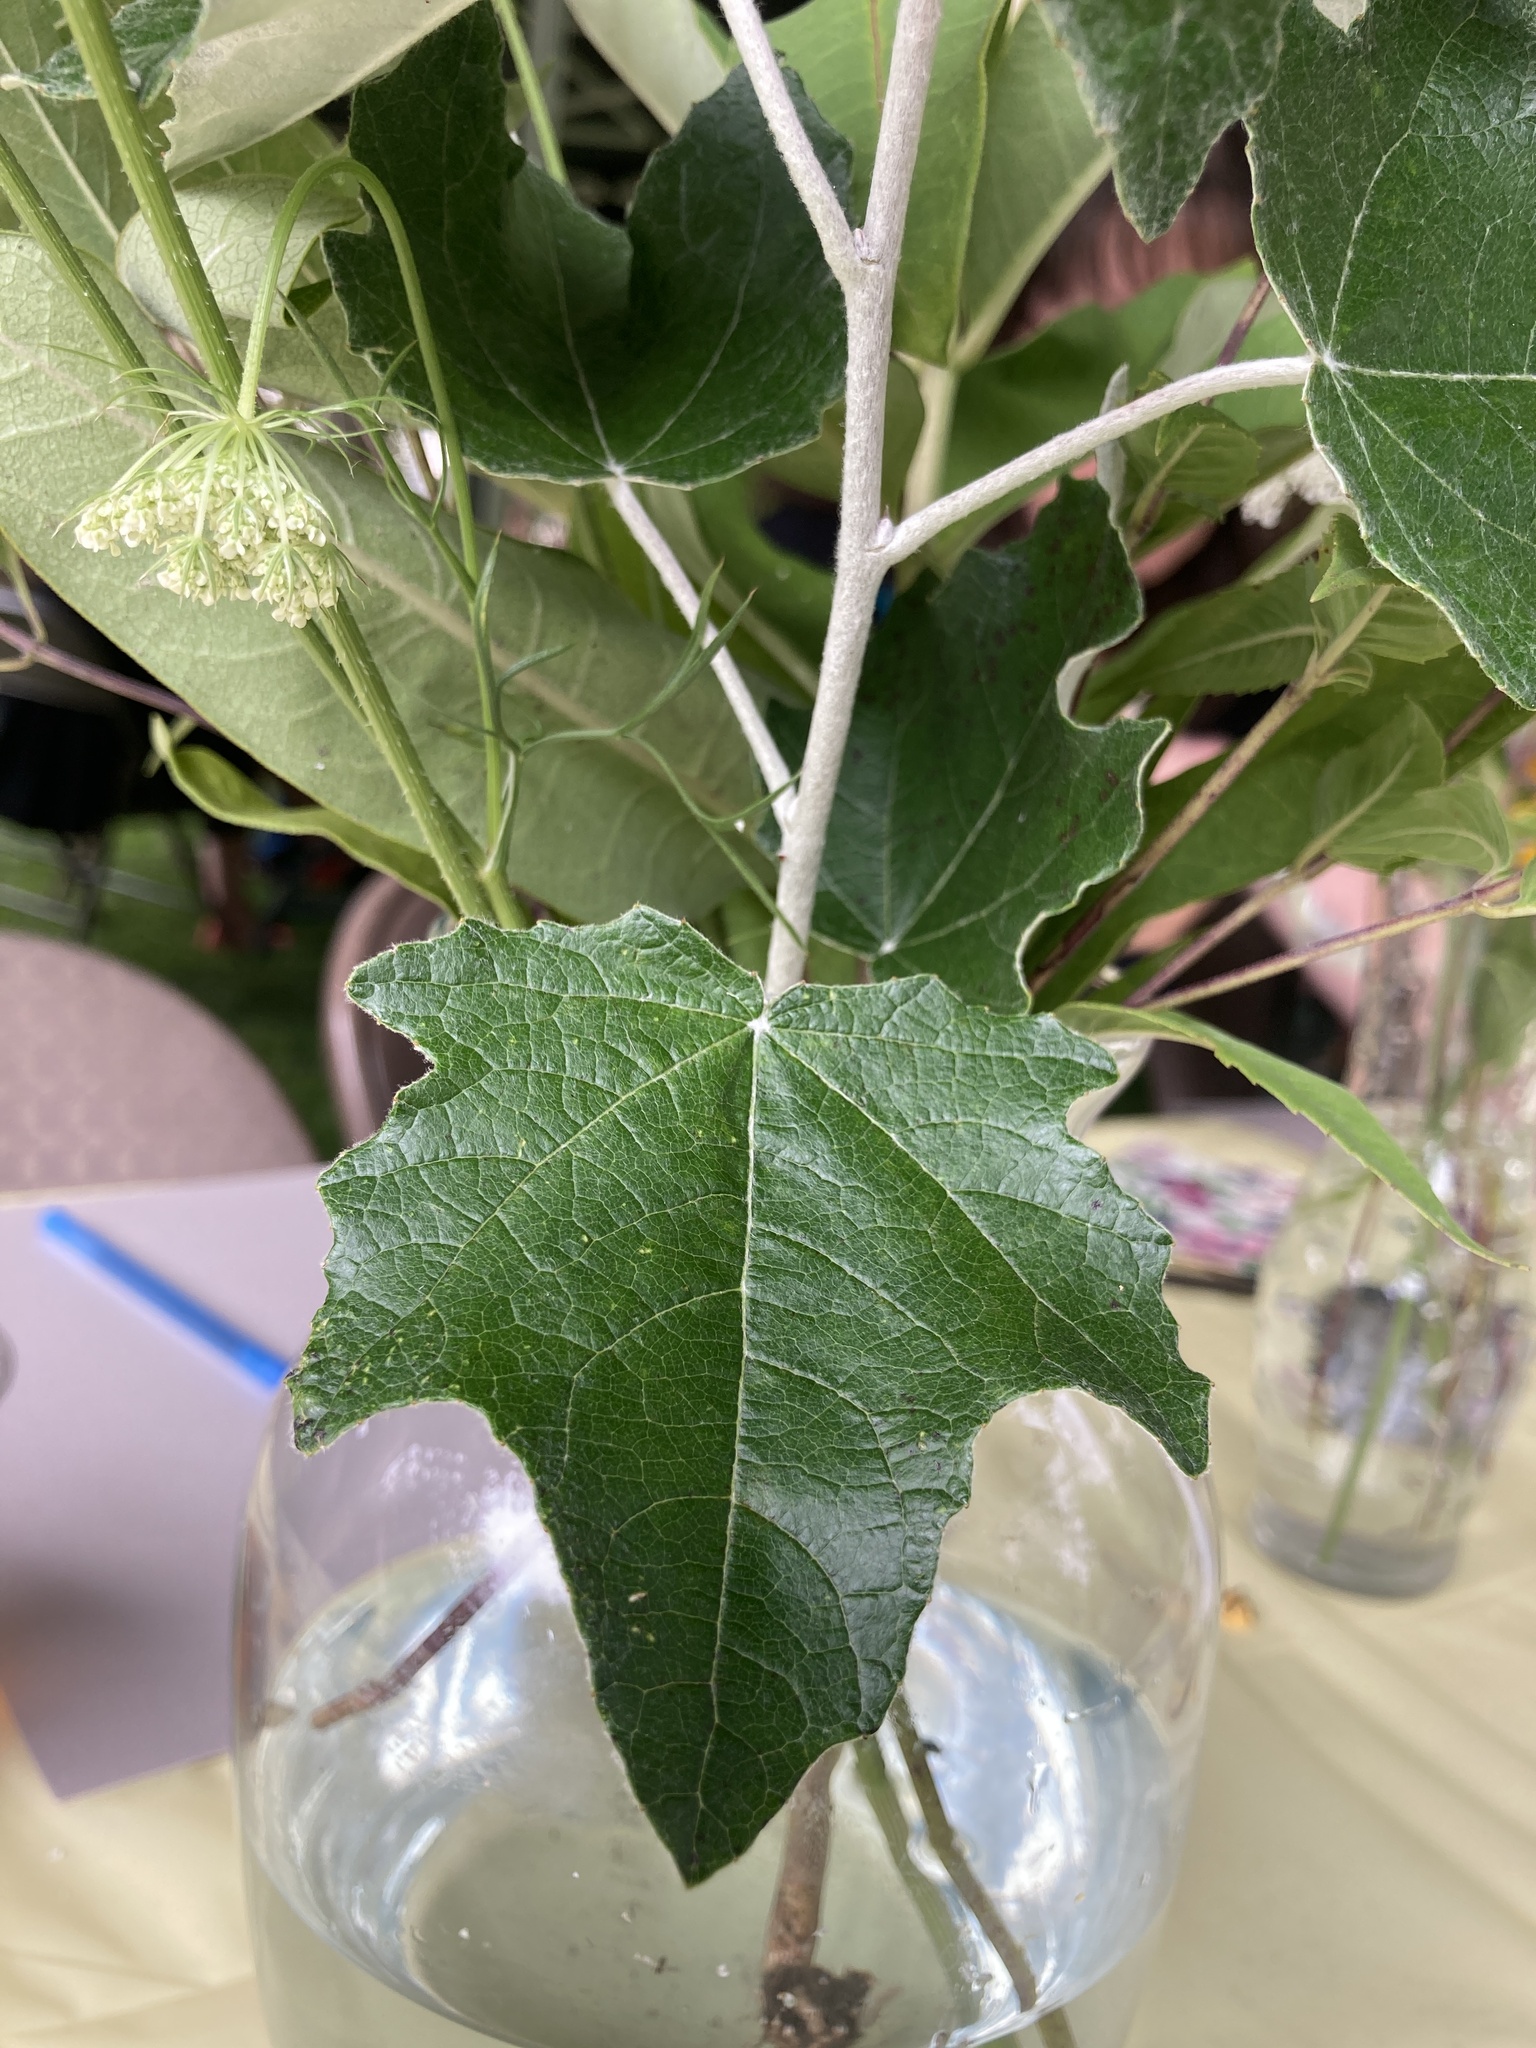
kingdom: Plantae
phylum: Tracheophyta
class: Magnoliopsida
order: Malpighiales
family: Salicaceae
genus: Populus
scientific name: Populus alba
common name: White poplar
